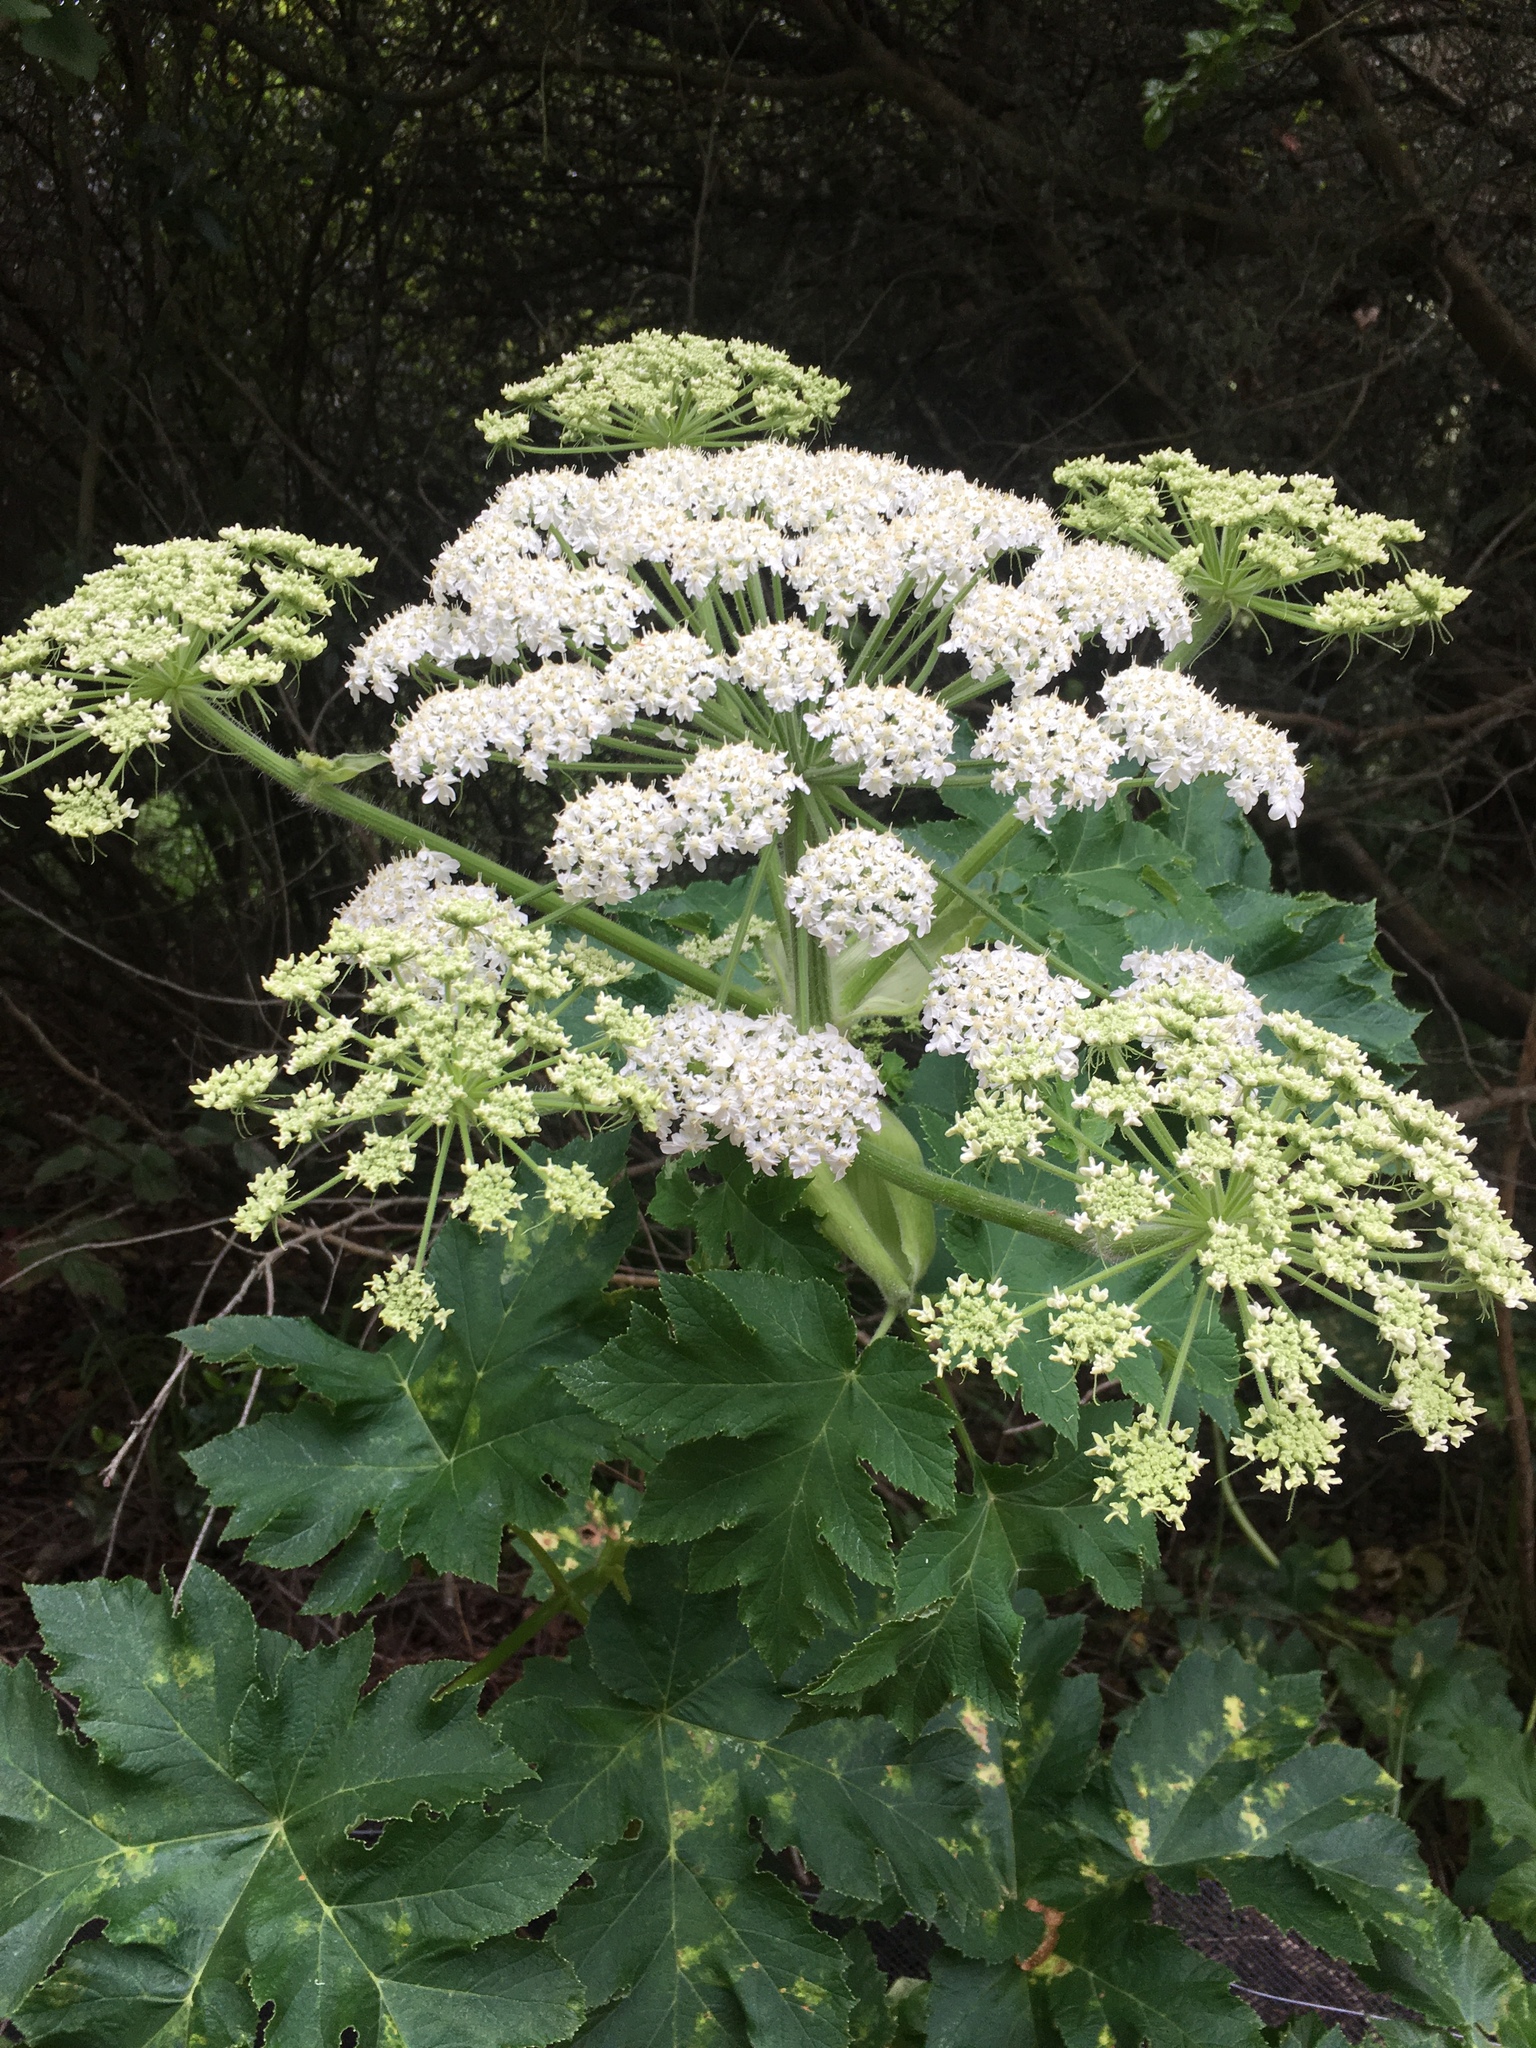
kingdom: Plantae
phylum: Tracheophyta
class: Magnoliopsida
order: Apiales
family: Apiaceae
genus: Heracleum
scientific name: Heracleum maximum
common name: American cow parsnip
